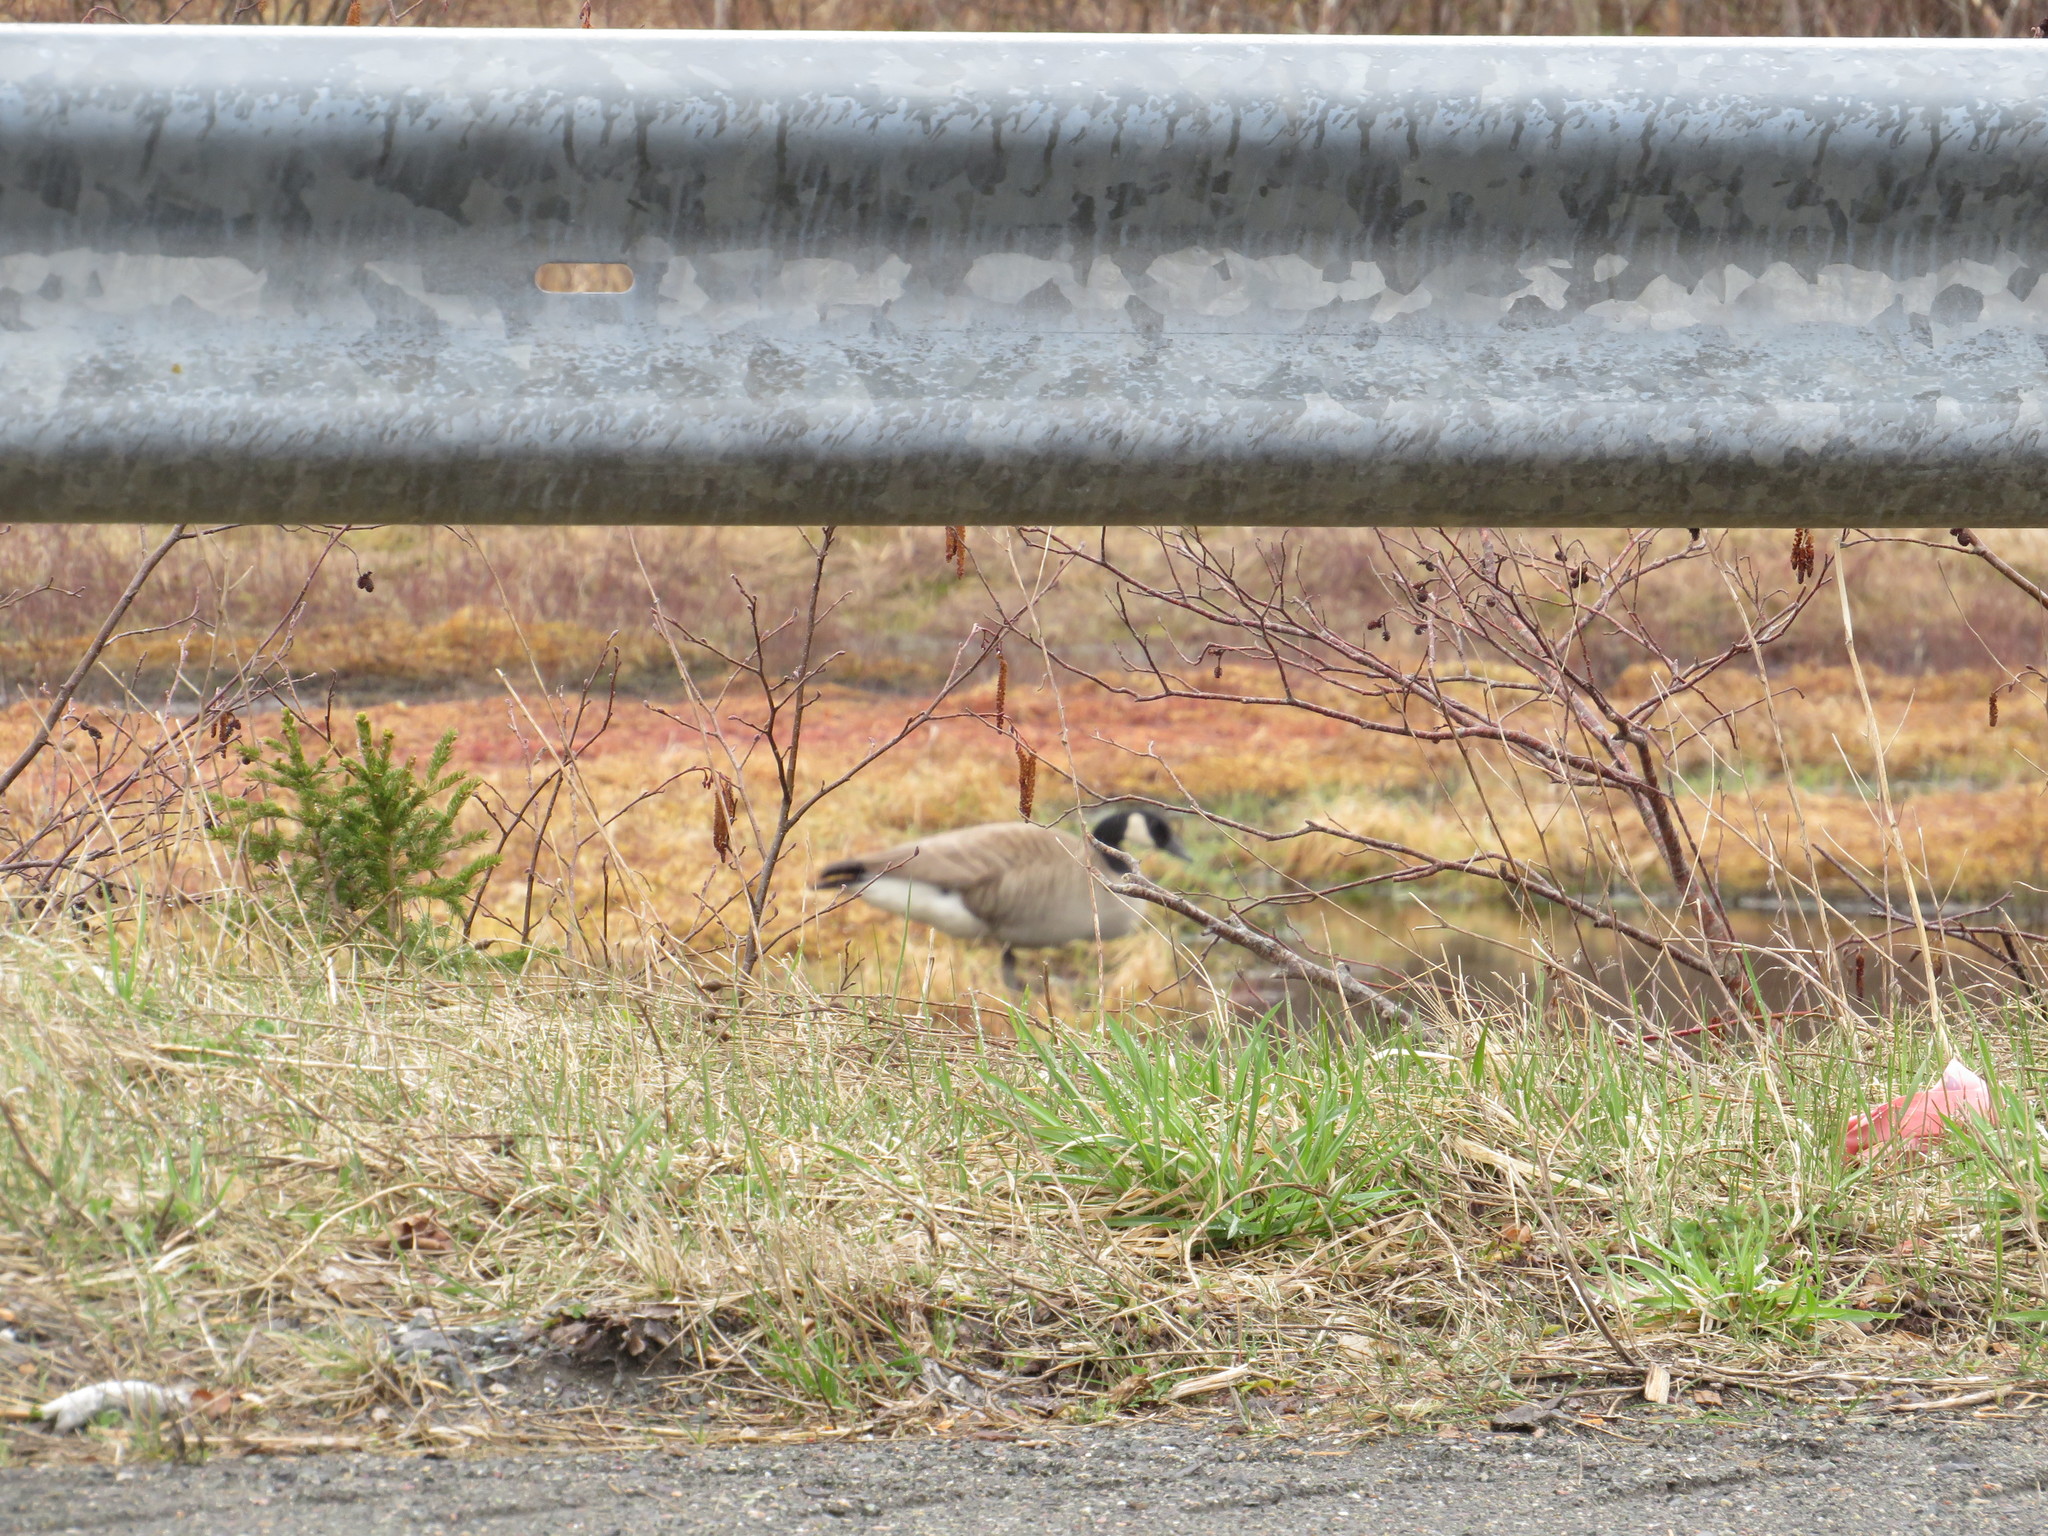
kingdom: Animalia
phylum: Chordata
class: Aves
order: Anseriformes
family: Anatidae
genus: Branta
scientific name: Branta canadensis
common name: Canada goose
